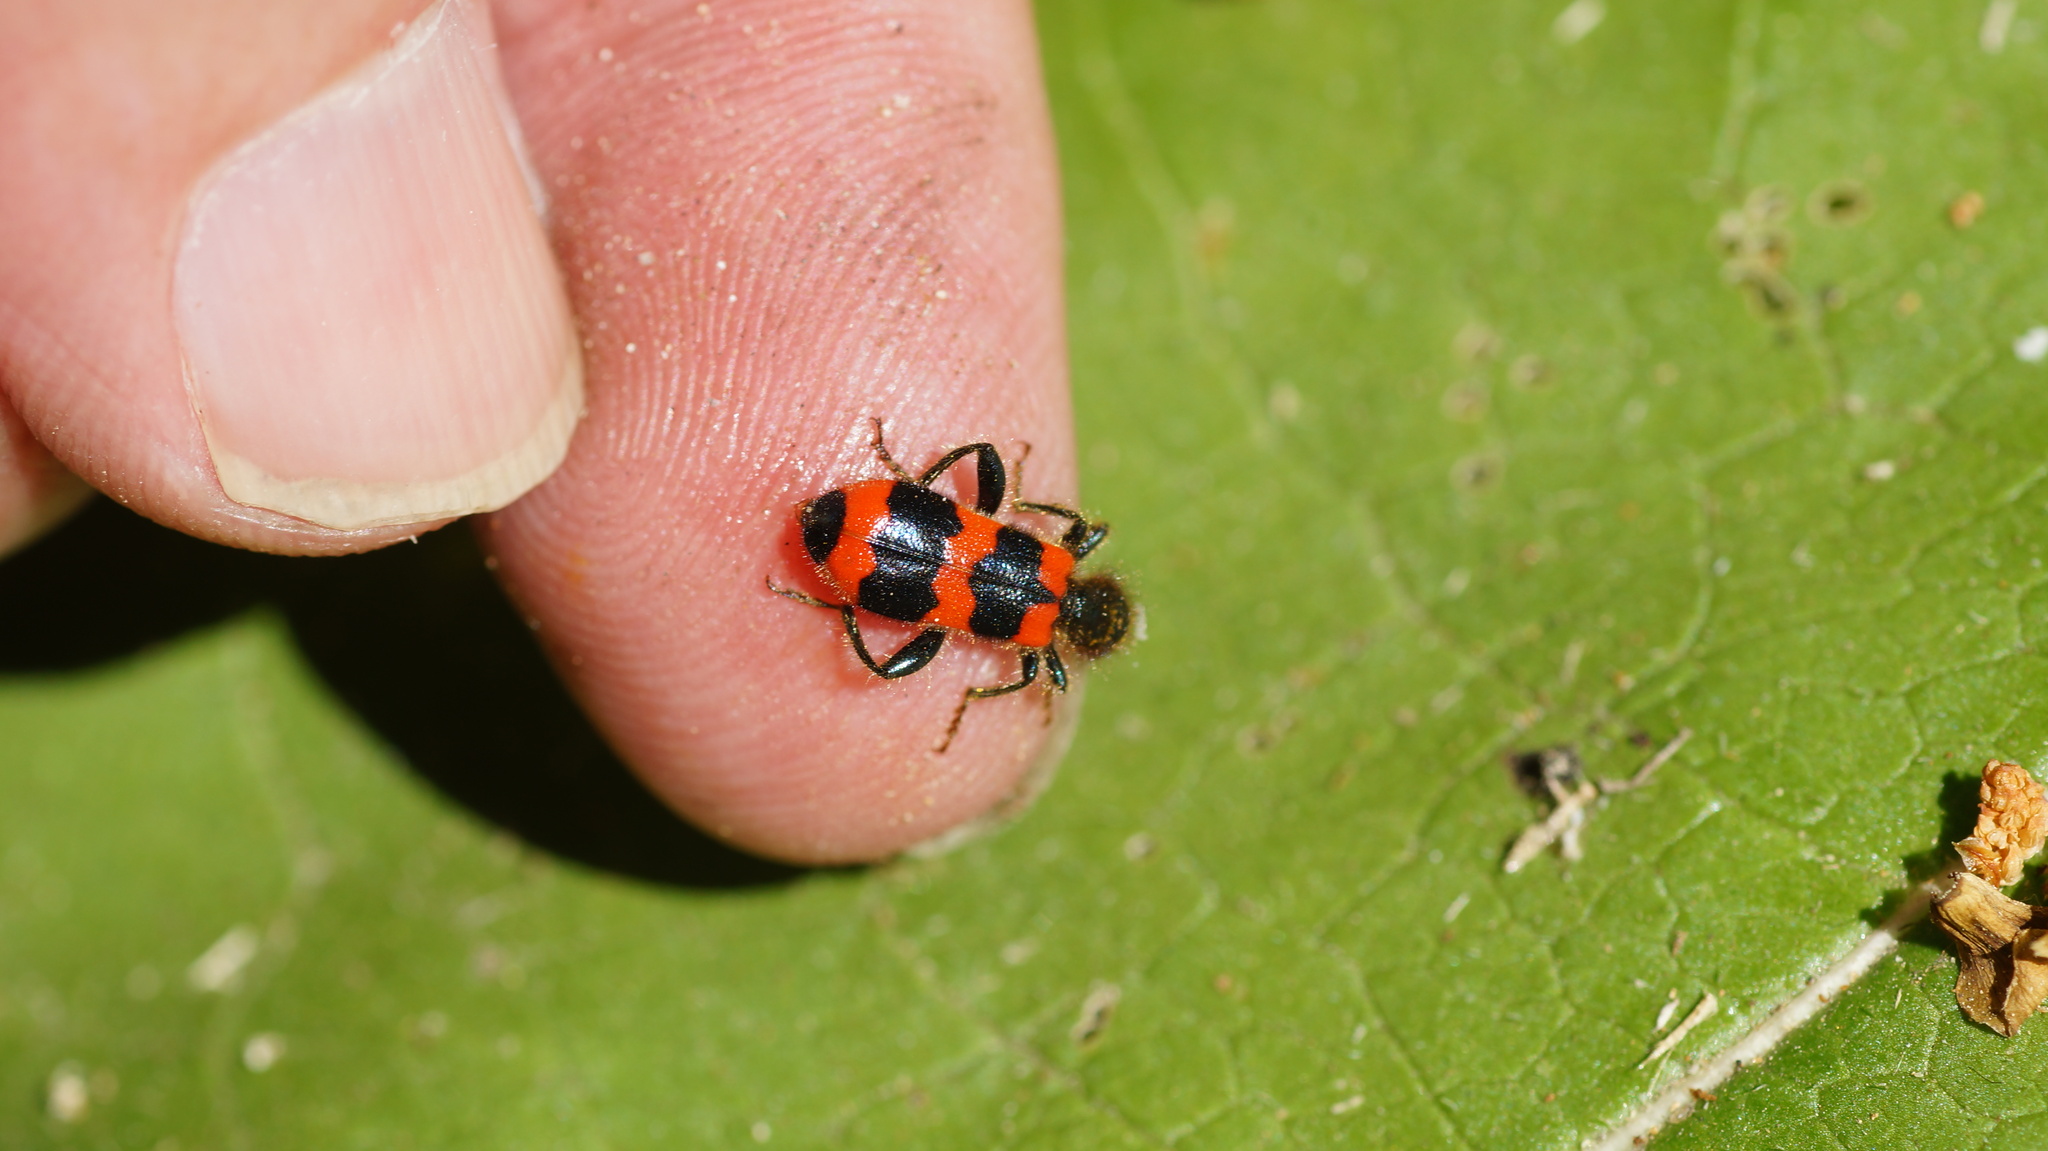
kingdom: Animalia
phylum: Arthropoda
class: Insecta
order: Coleoptera
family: Cleridae
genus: Trichodes
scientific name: Trichodes apiarius
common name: Bee-eating beetle
